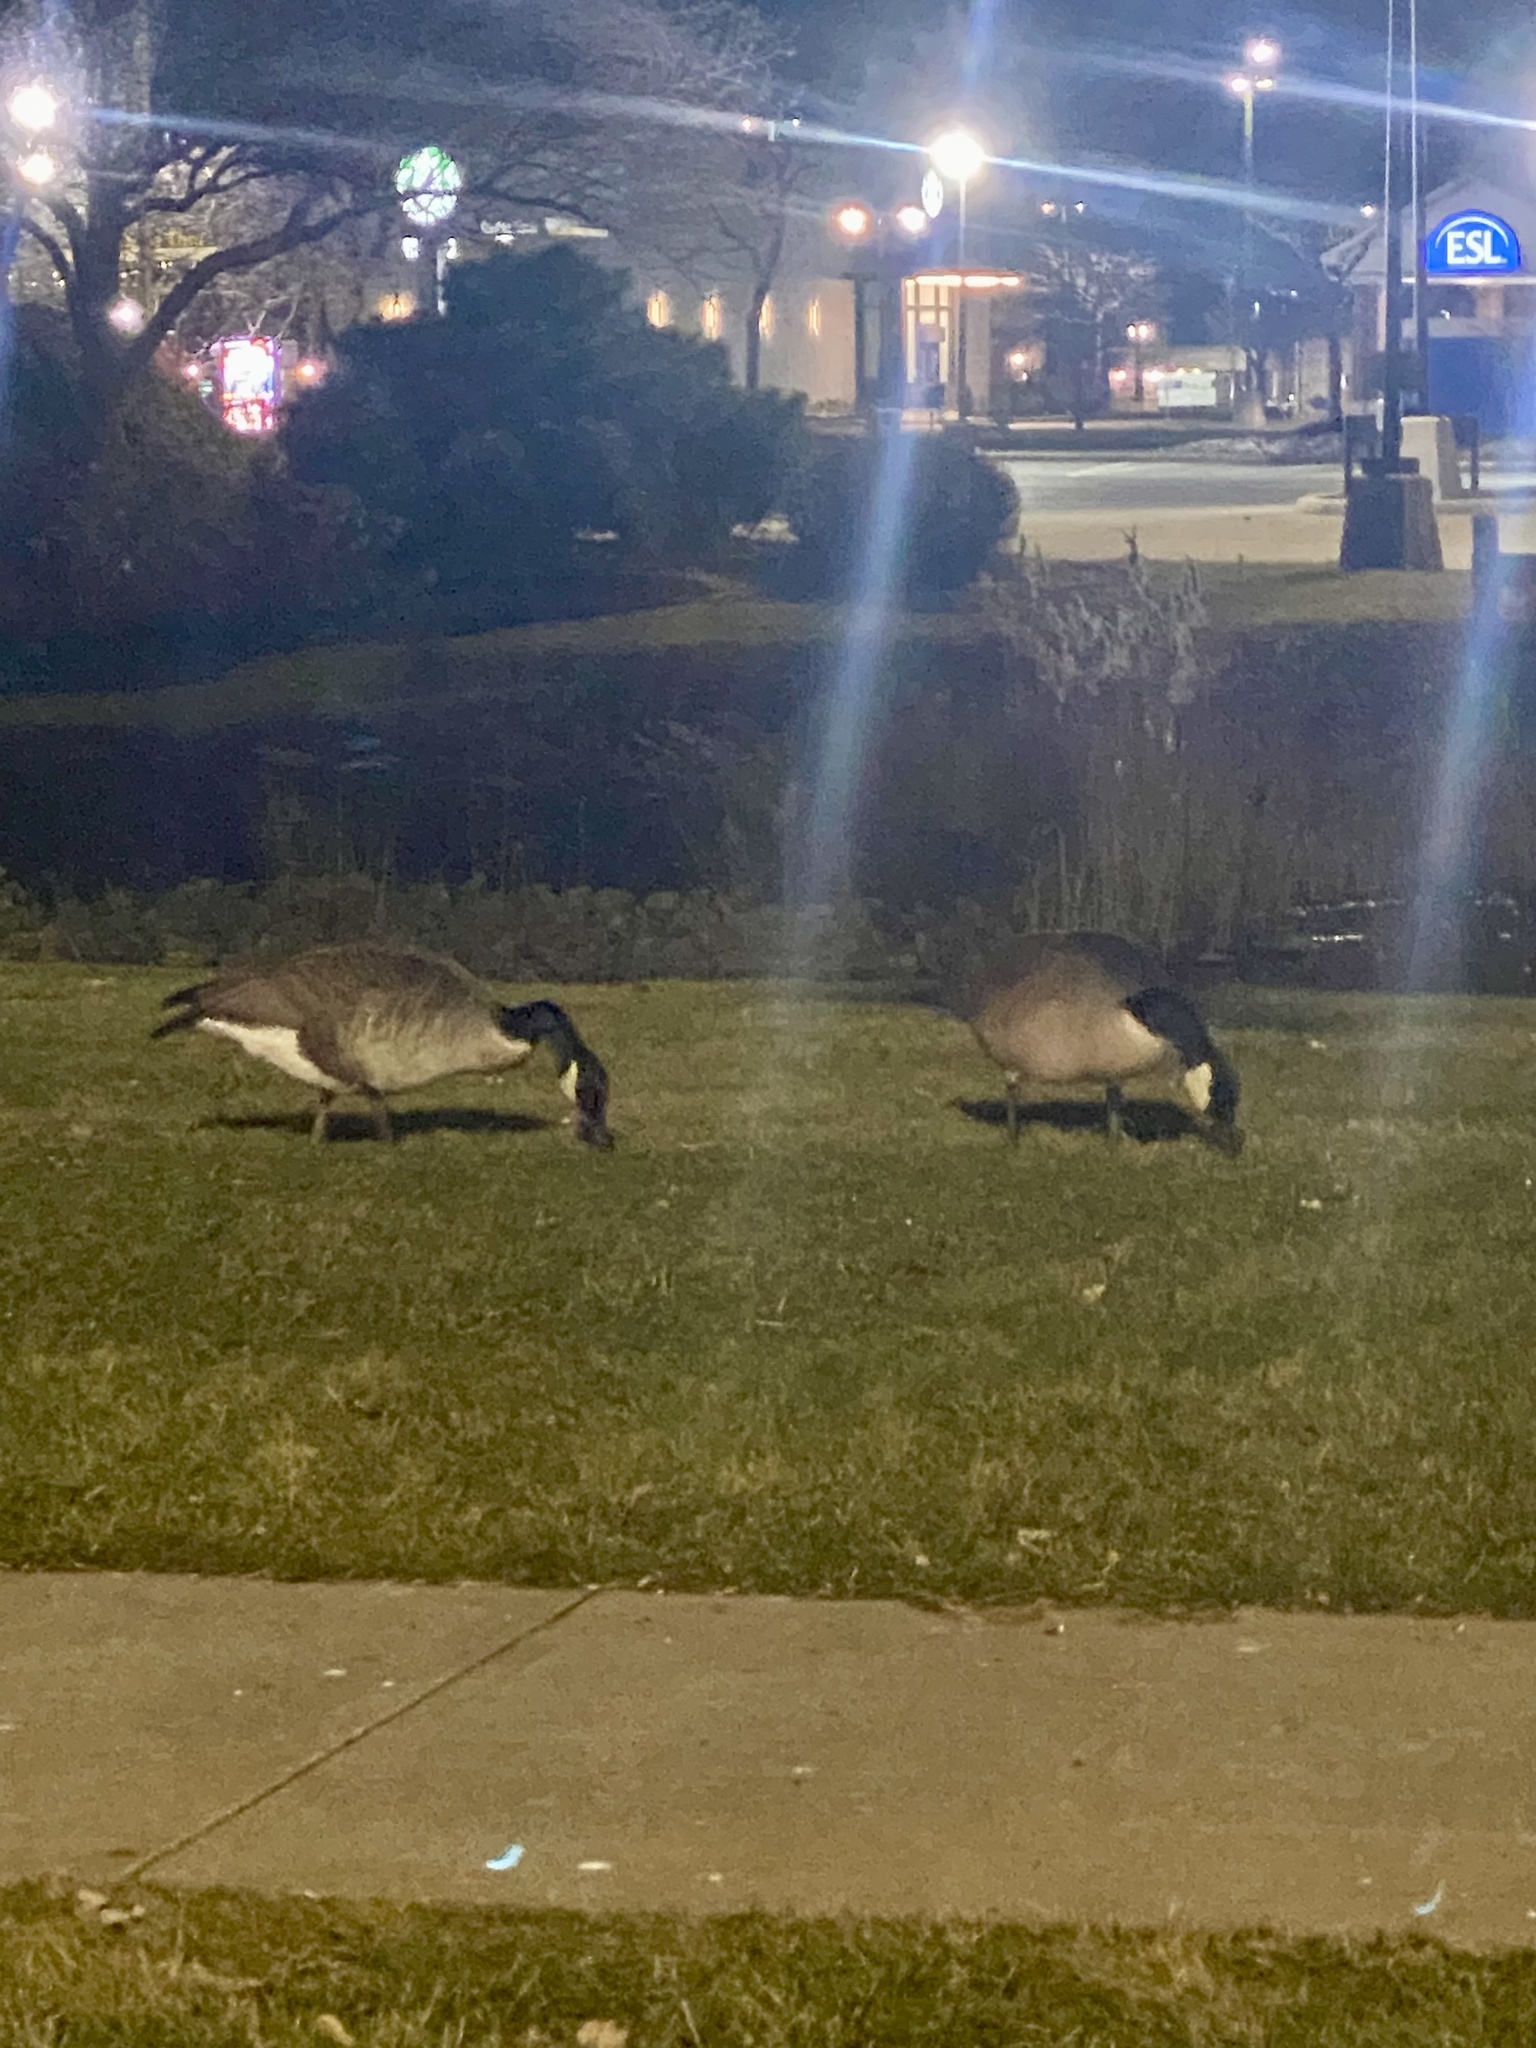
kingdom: Animalia
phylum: Chordata
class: Aves
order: Anseriformes
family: Anatidae
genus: Branta
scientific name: Branta canadensis
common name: Canada goose
